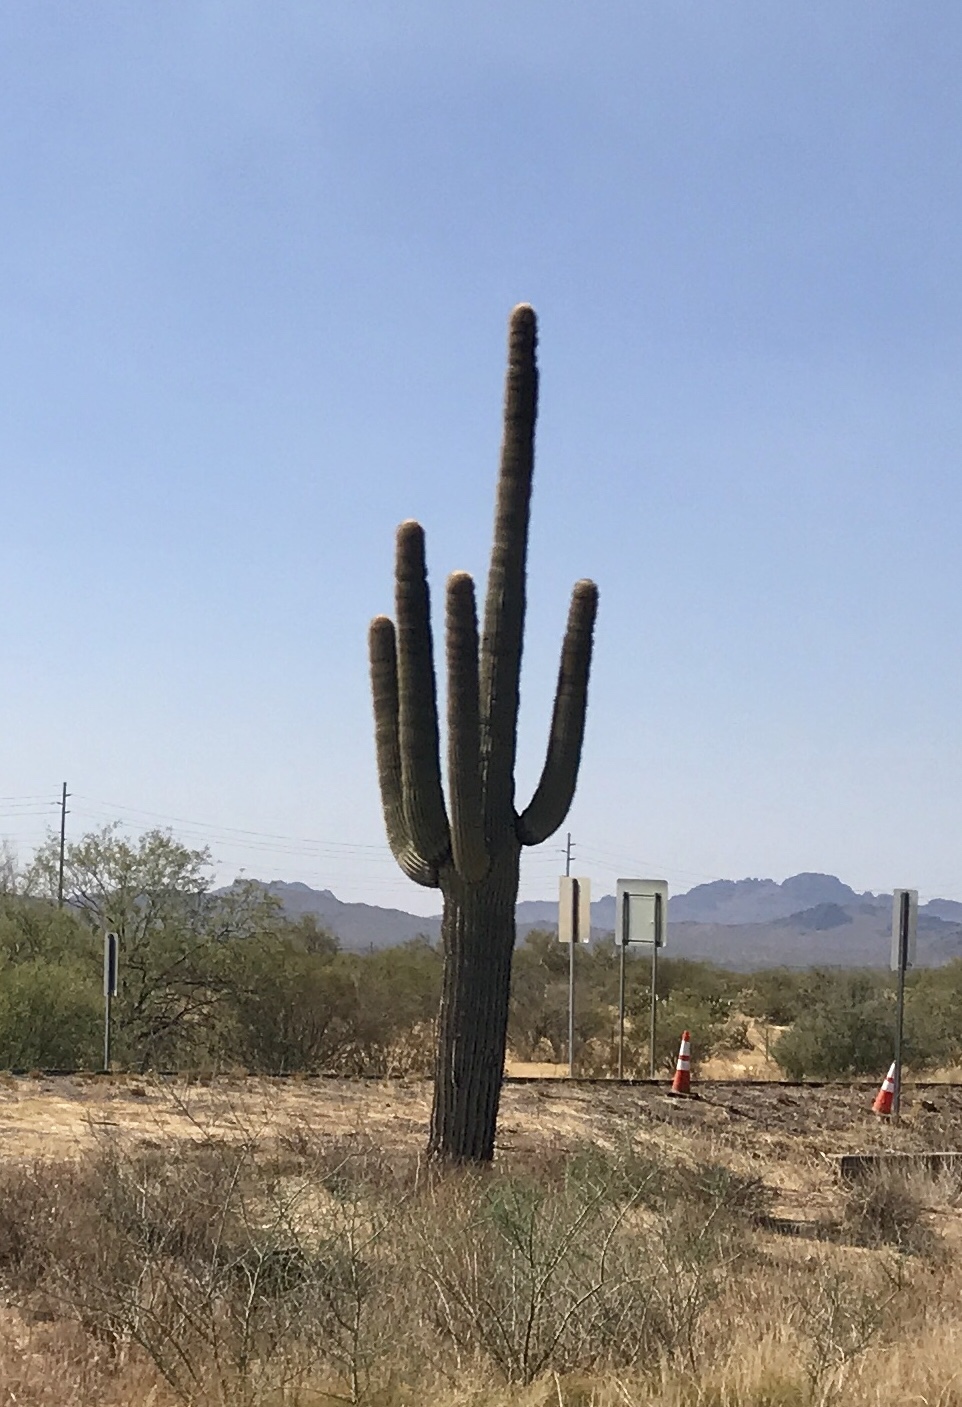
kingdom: Plantae
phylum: Tracheophyta
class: Magnoliopsida
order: Caryophyllales
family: Cactaceae
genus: Carnegiea
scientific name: Carnegiea gigantea
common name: Saguaro
